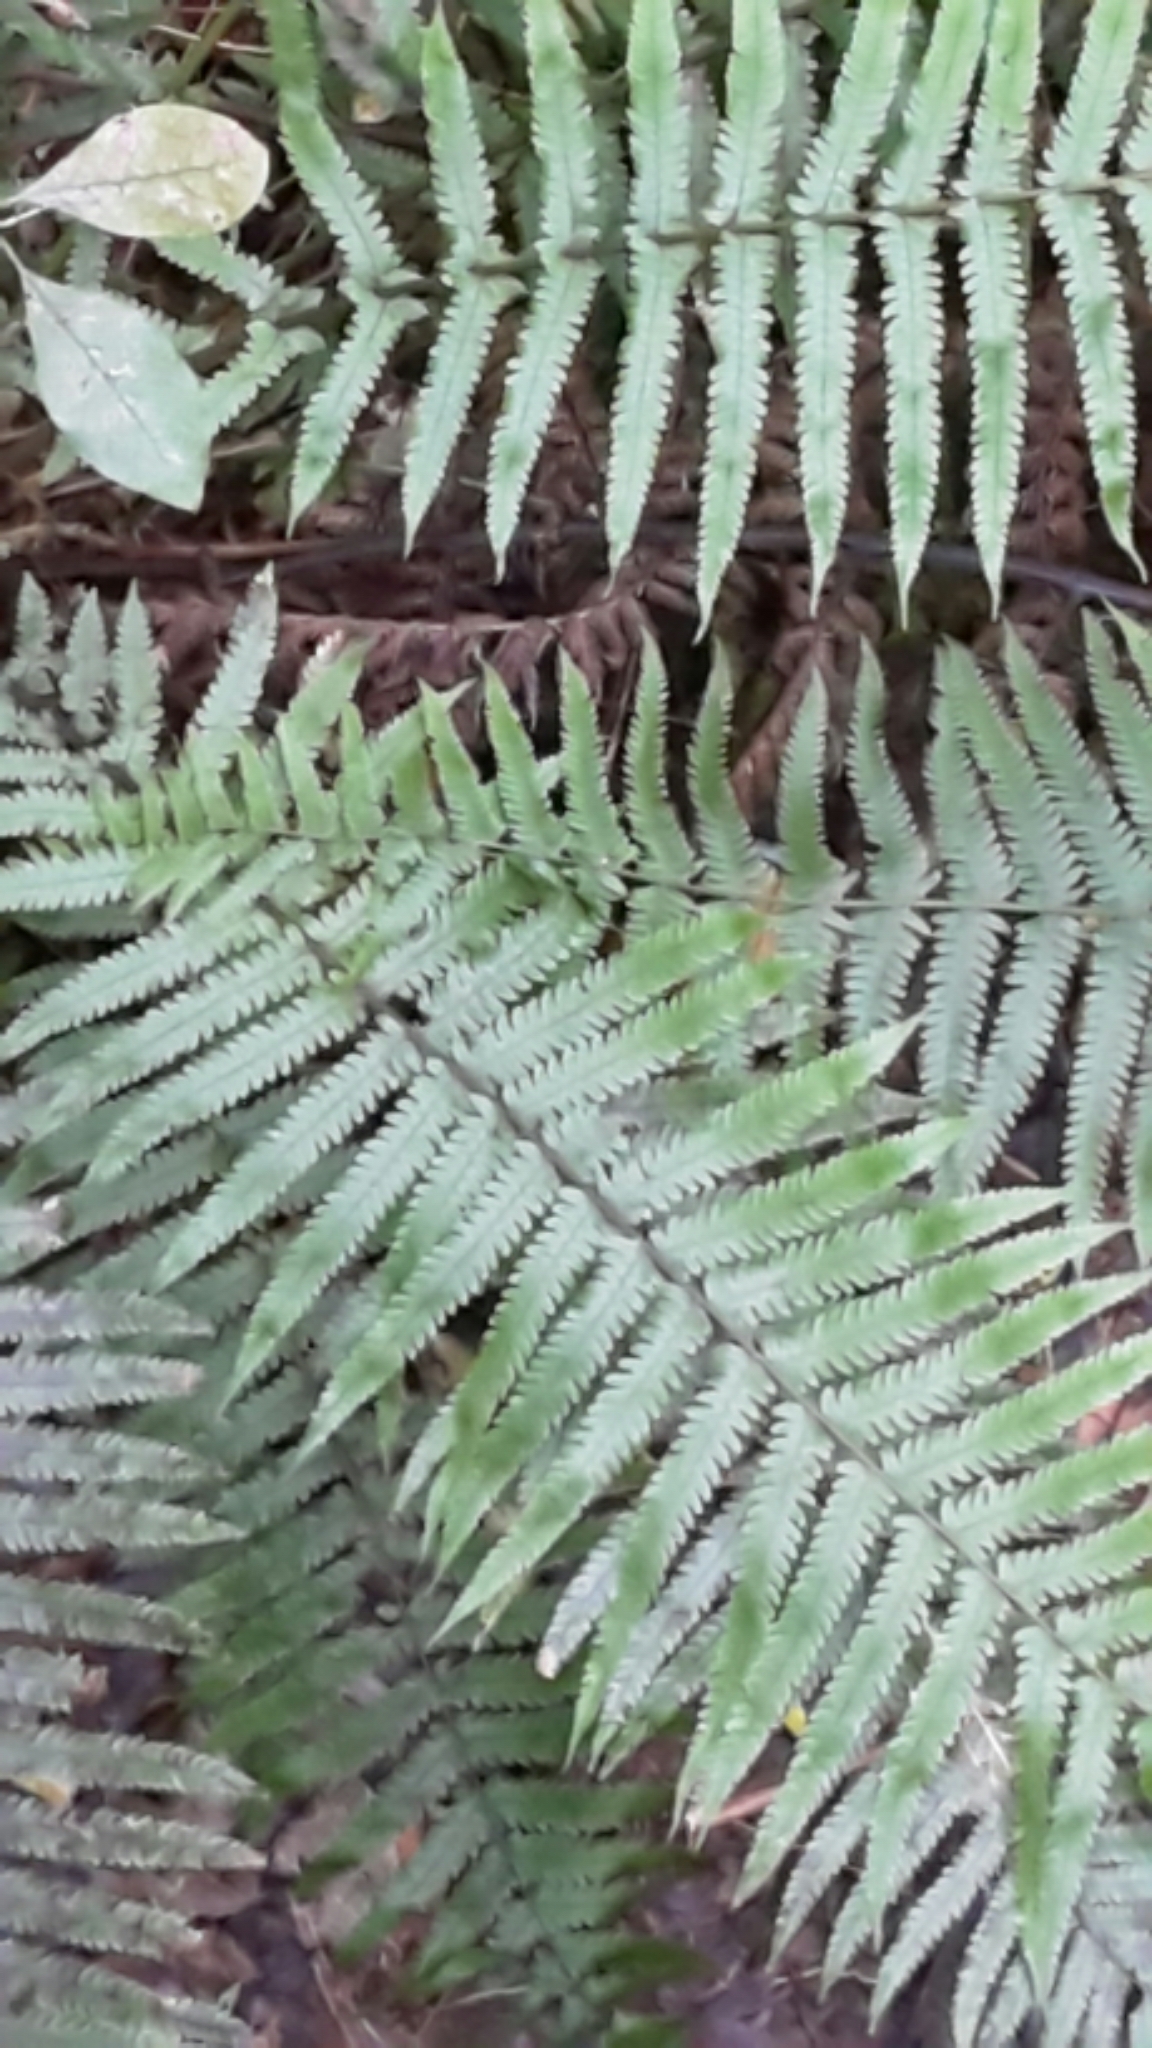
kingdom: Plantae
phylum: Tracheophyta
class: Polypodiopsida
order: Polypodiales
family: Thelypteridaceae
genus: Pakau
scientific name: Pakau pennigera
